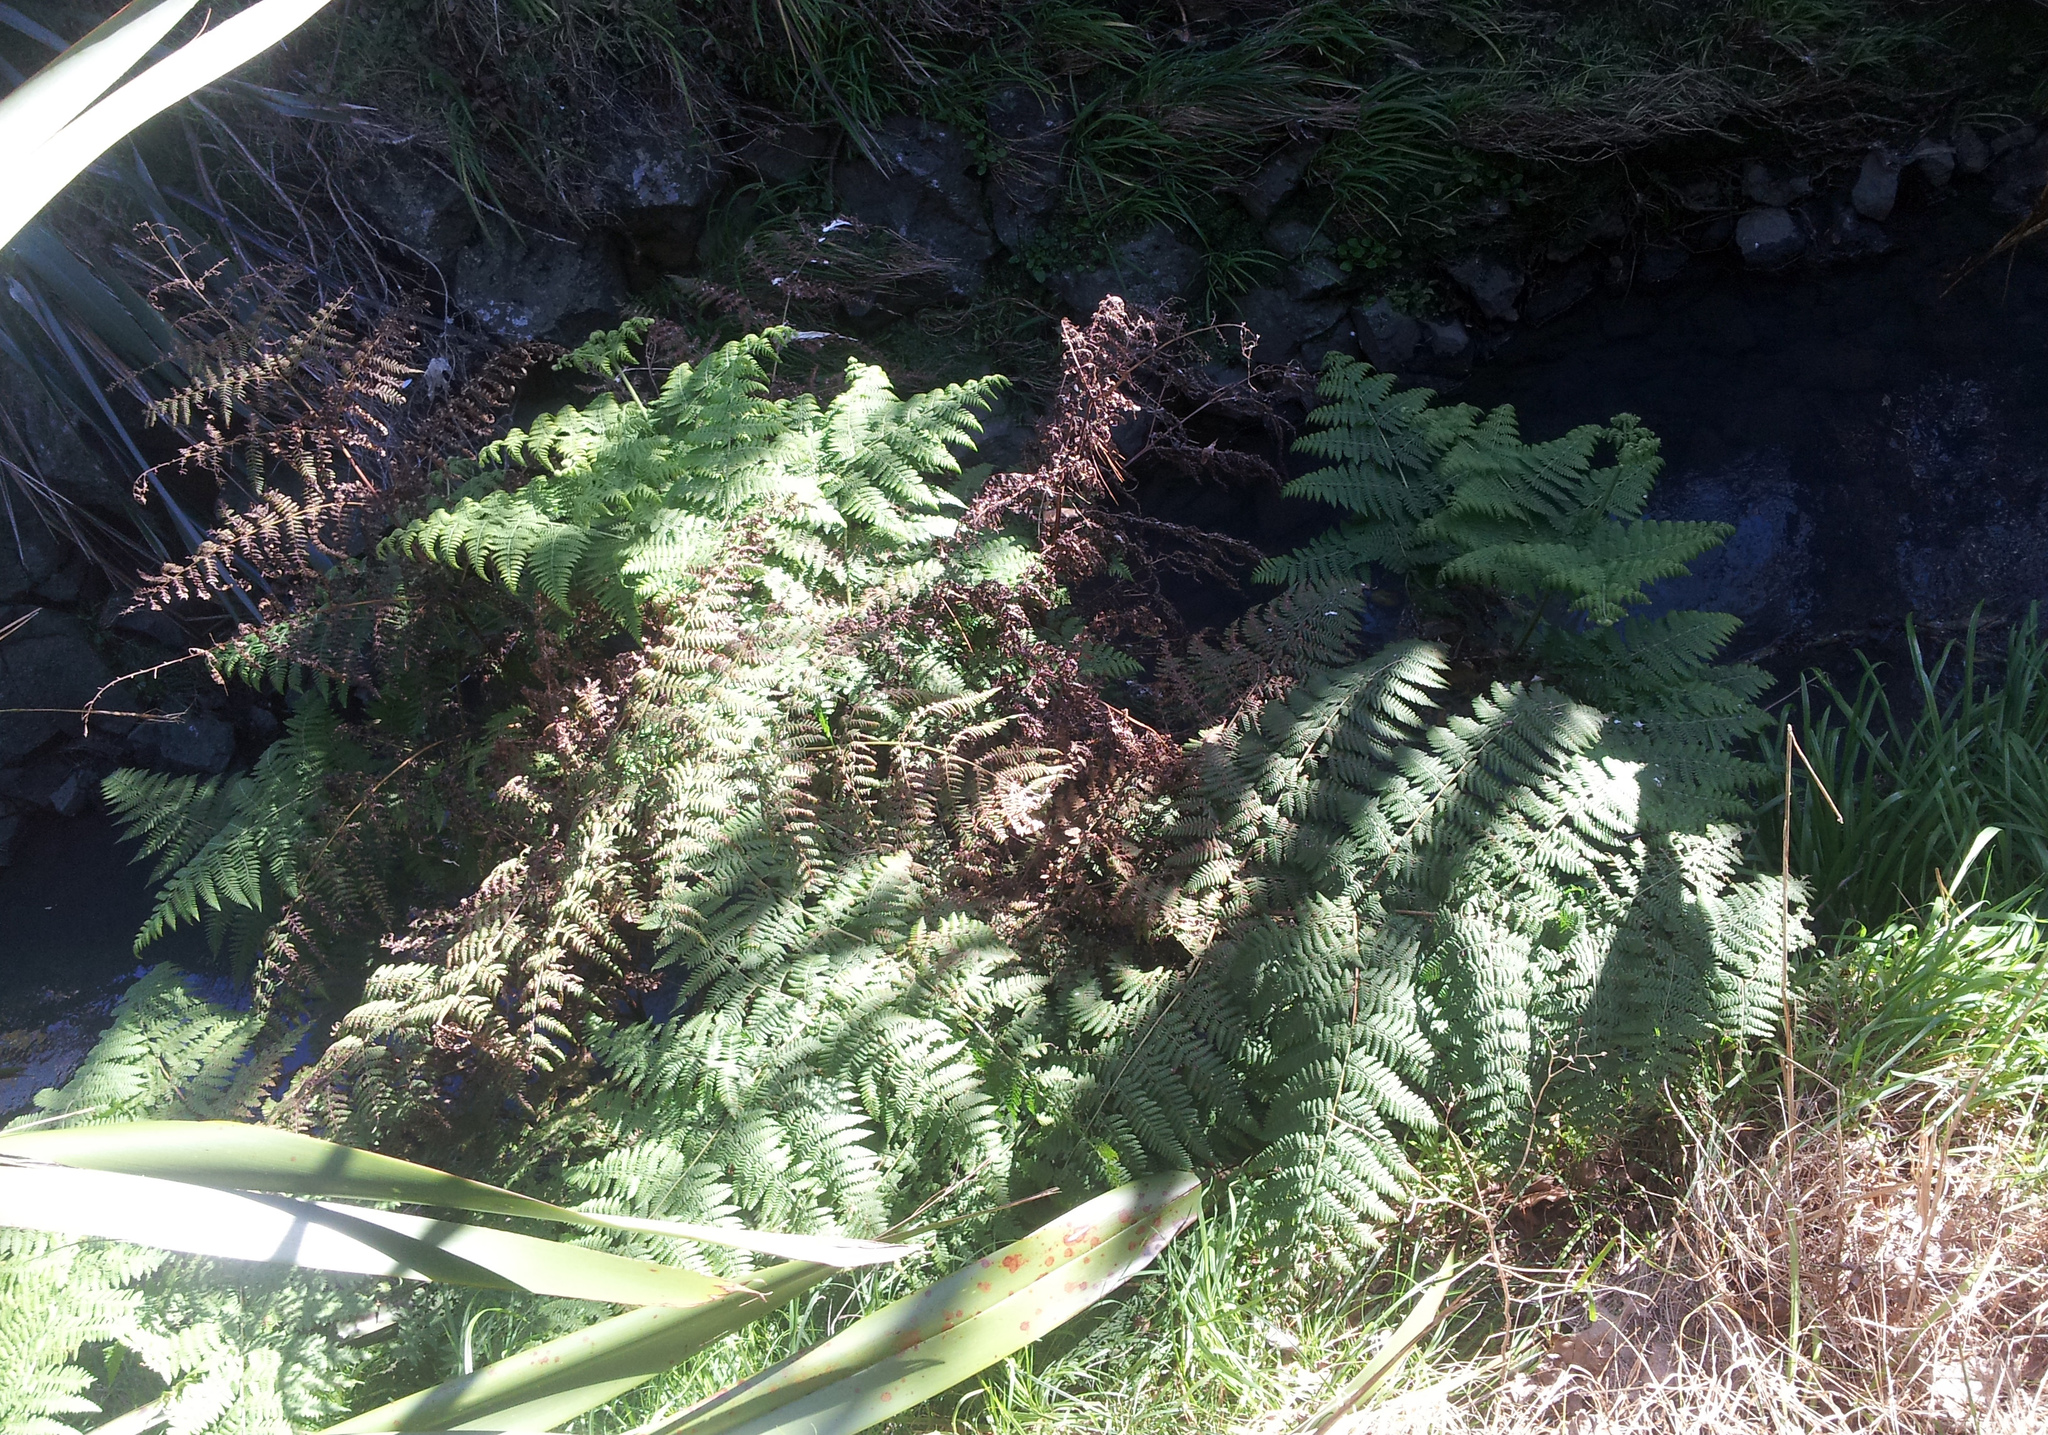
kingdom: Plantae
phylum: Tracheophyta
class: Polypodiopsida
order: Polypodiales
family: Dennstaedtiaceae
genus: Hypolepis
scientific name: Hypolepis dicksonioides
